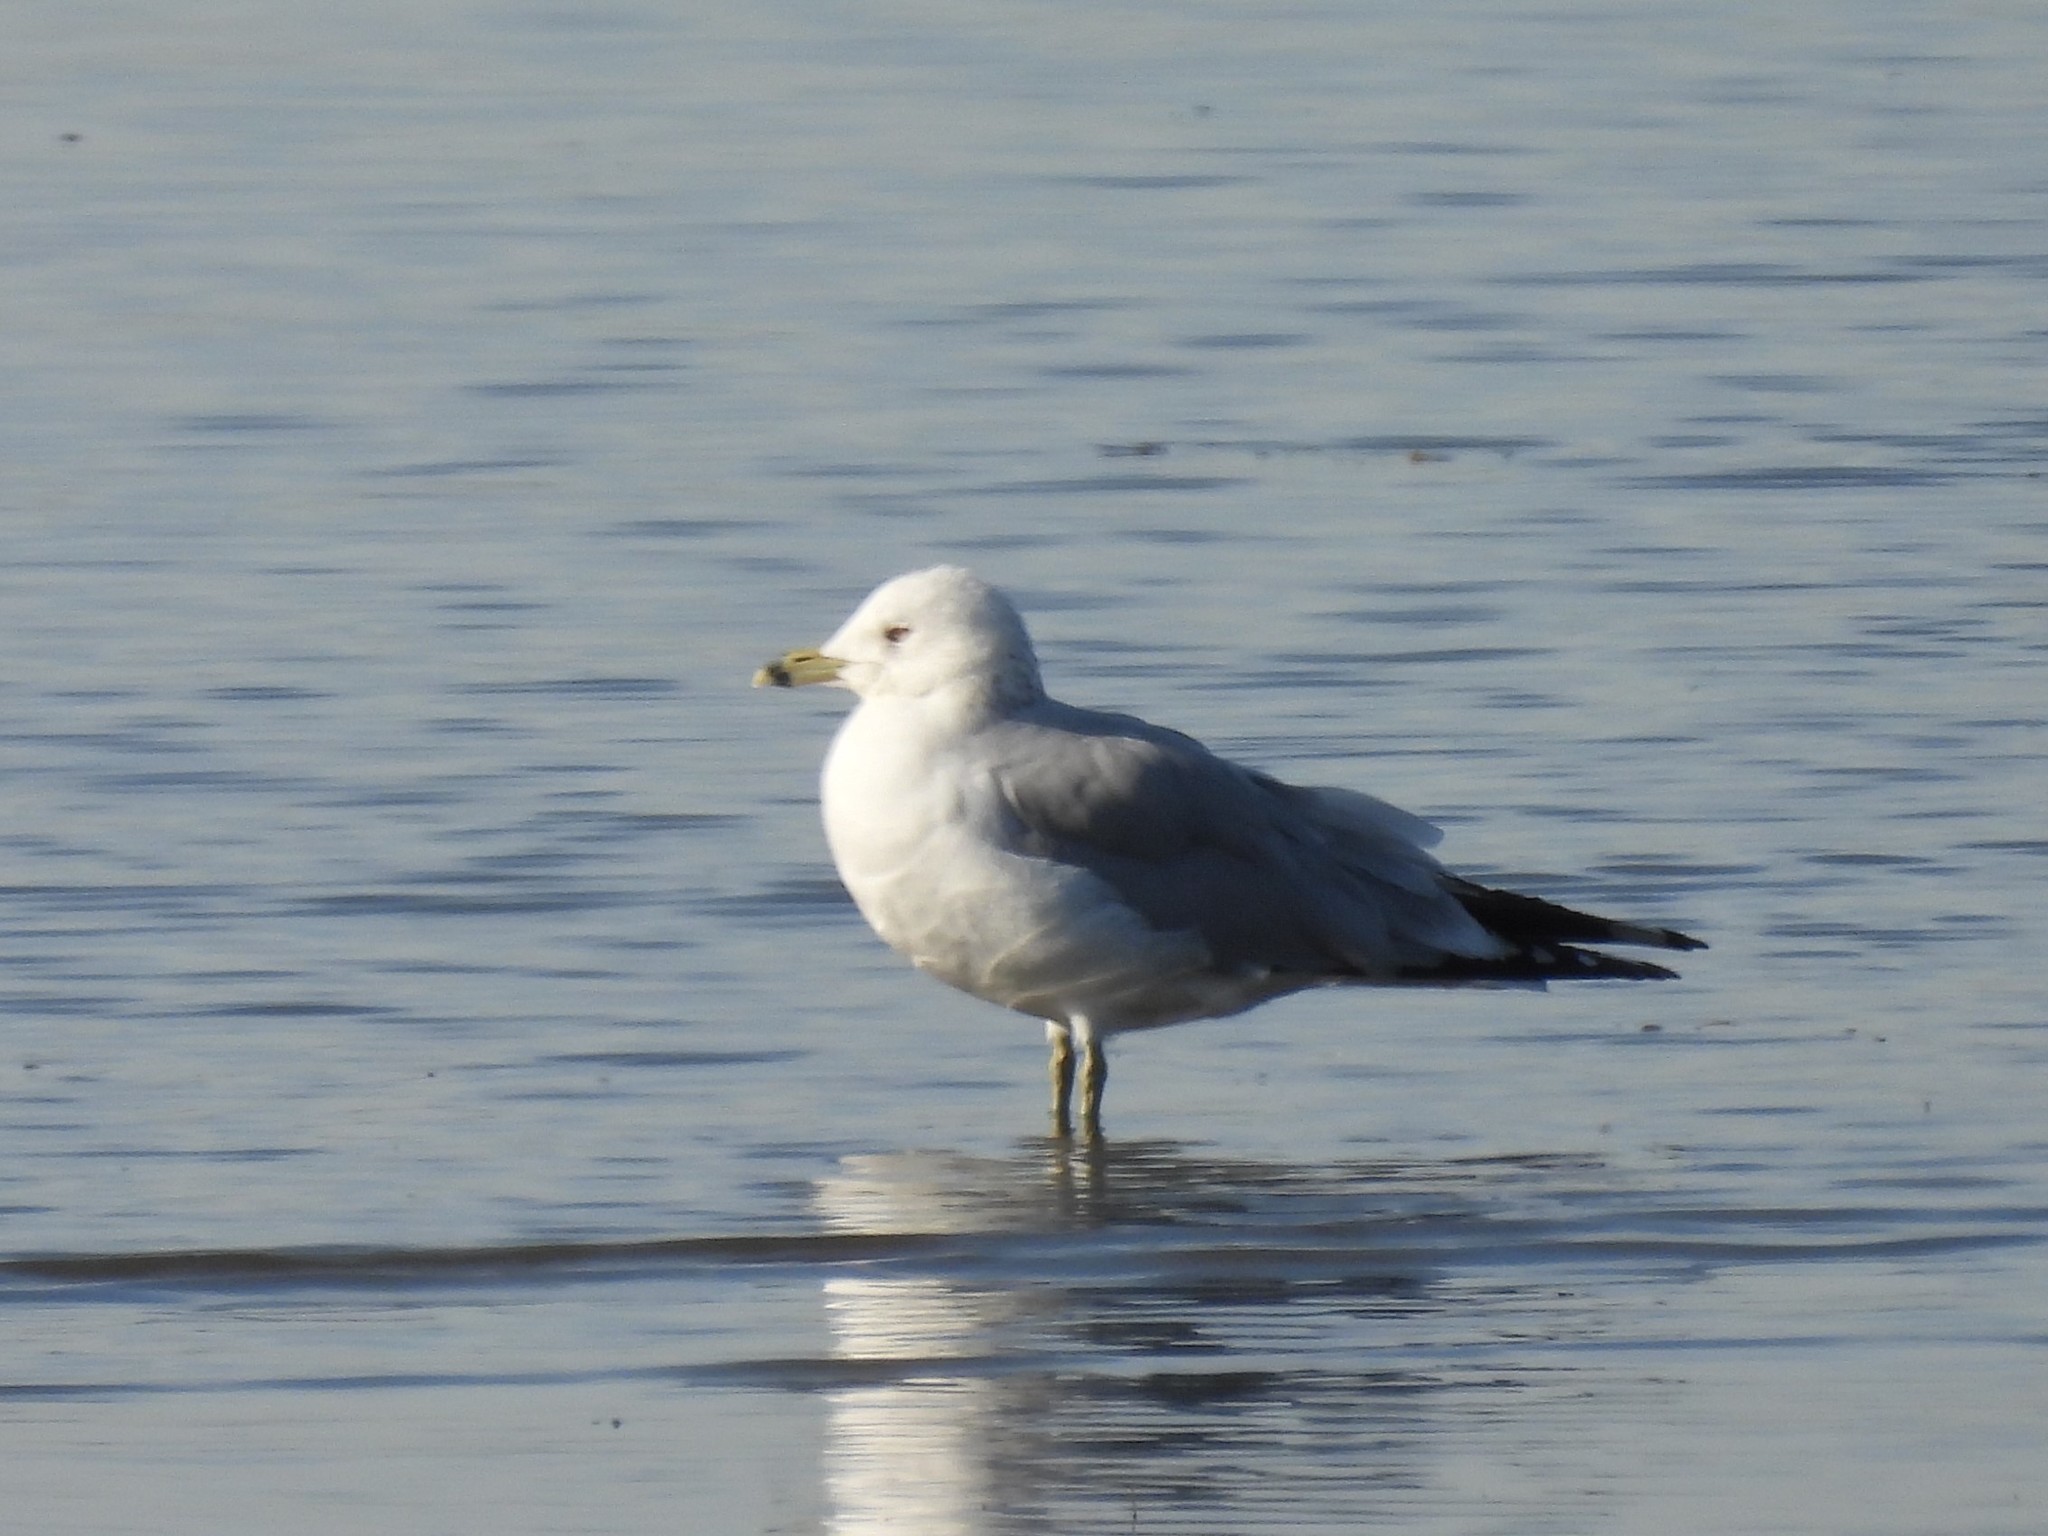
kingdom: Animalia
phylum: Chordata
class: Aves
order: Charadriiformes
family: Laridae
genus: Larus
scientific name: Larus delawarensis
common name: Ring-billed gull
